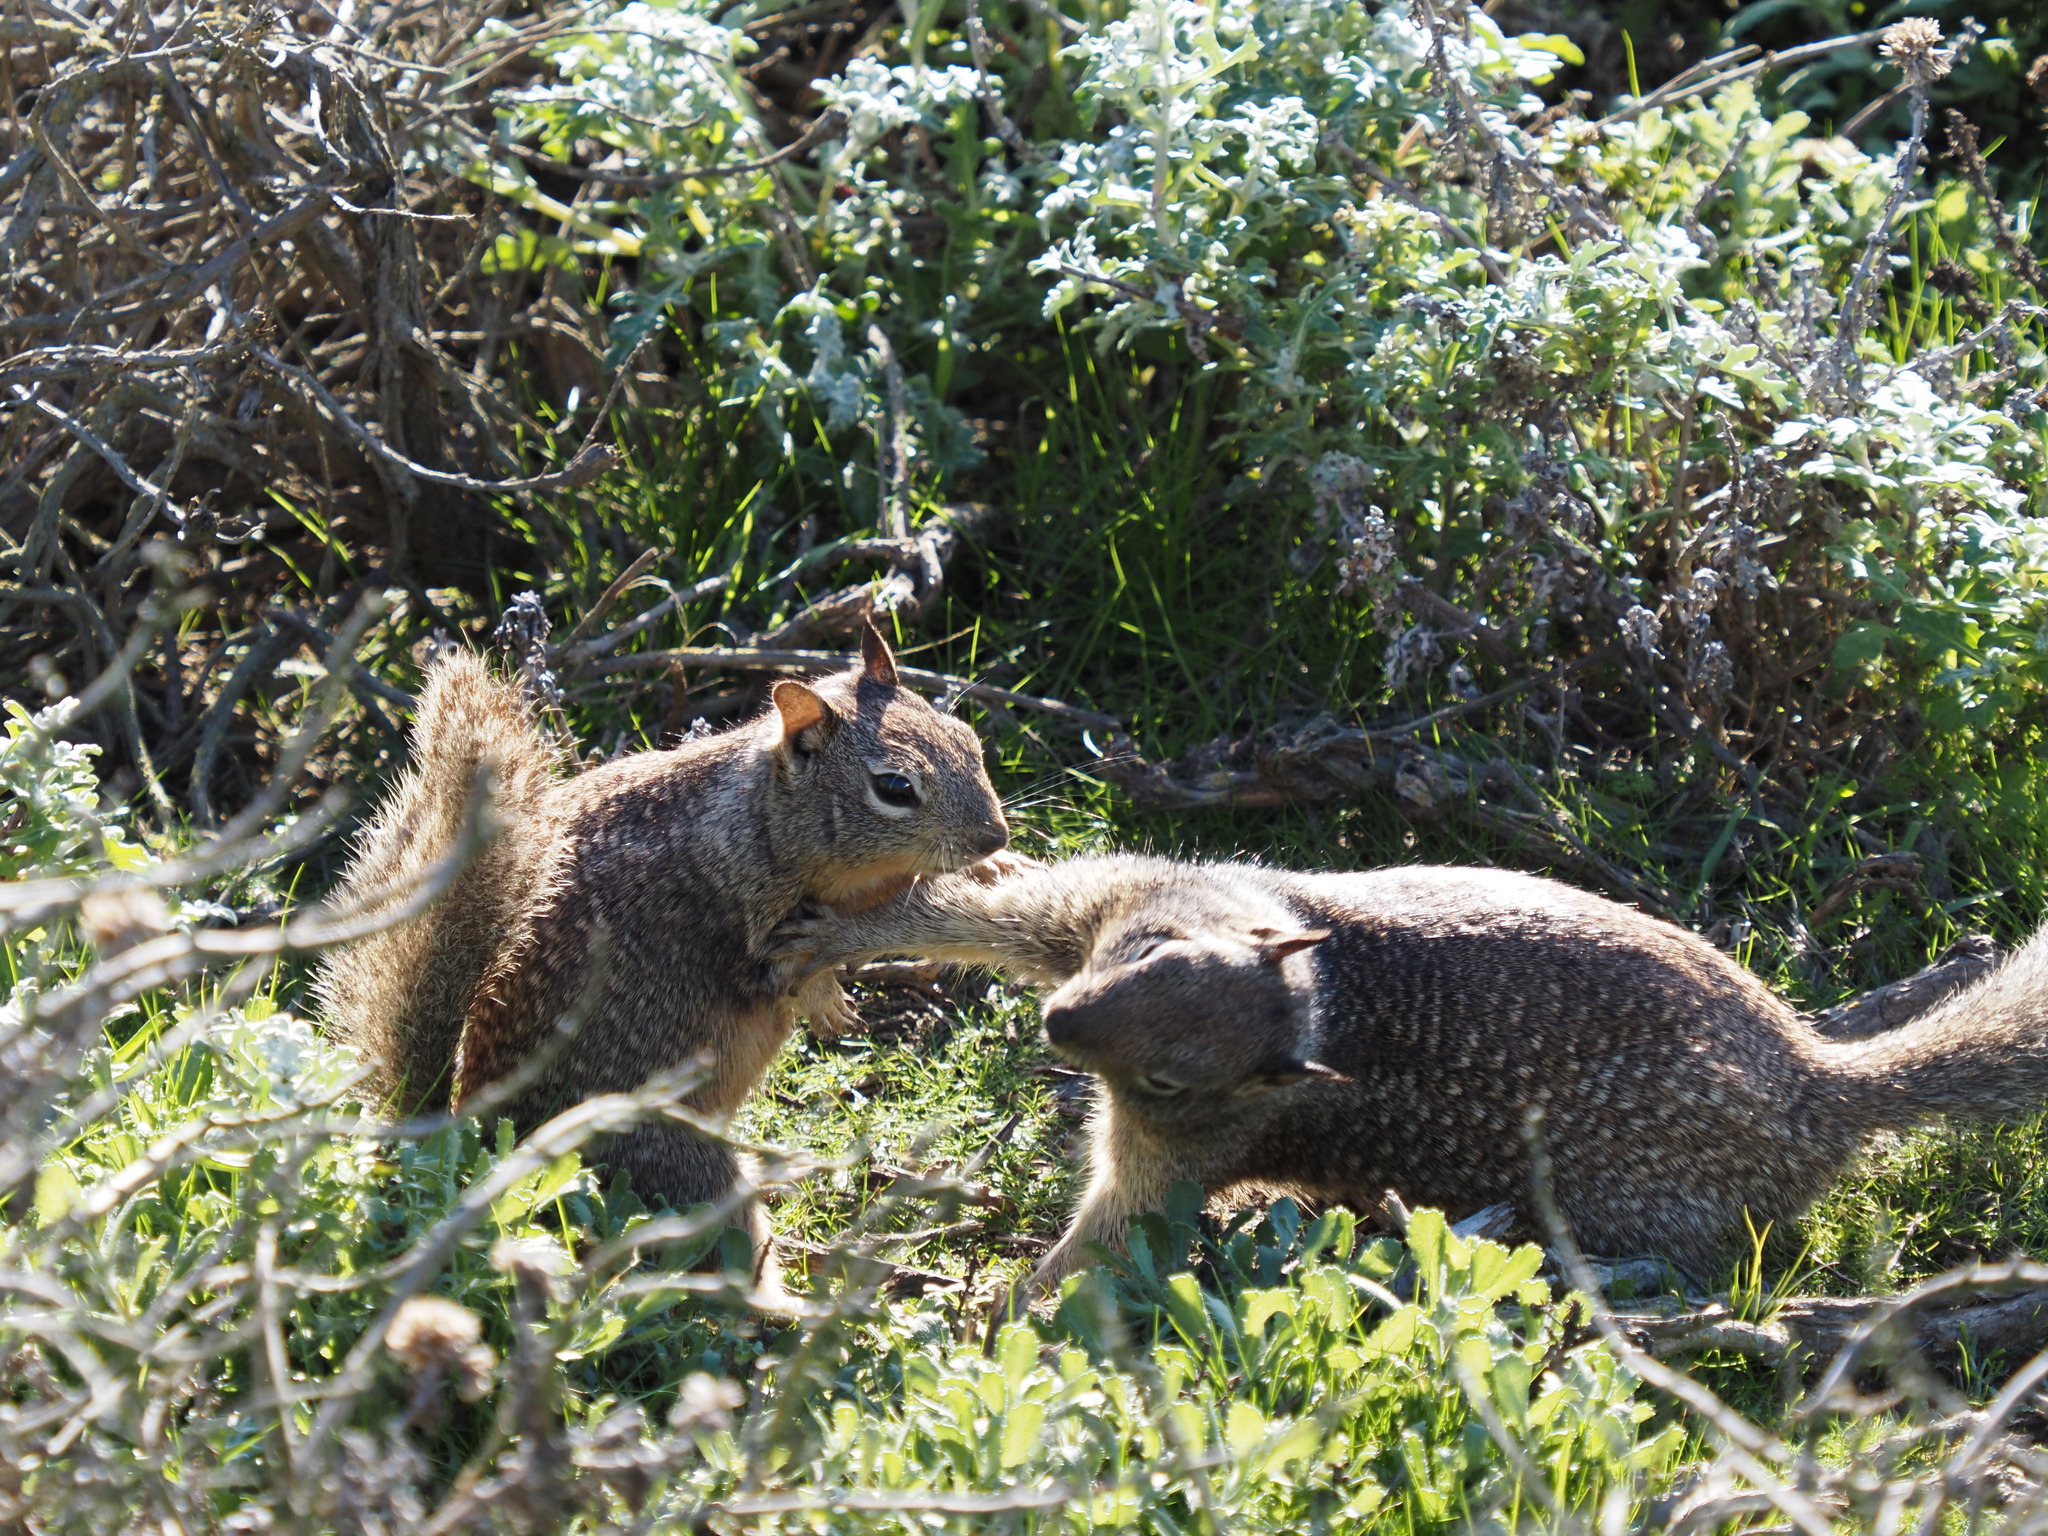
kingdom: Animalia
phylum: Chordata
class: Mammalia
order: Rodentia
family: Sciuridae
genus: Otospermophilus
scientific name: Otospermophilus beecheyi
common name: California ground squirrel
